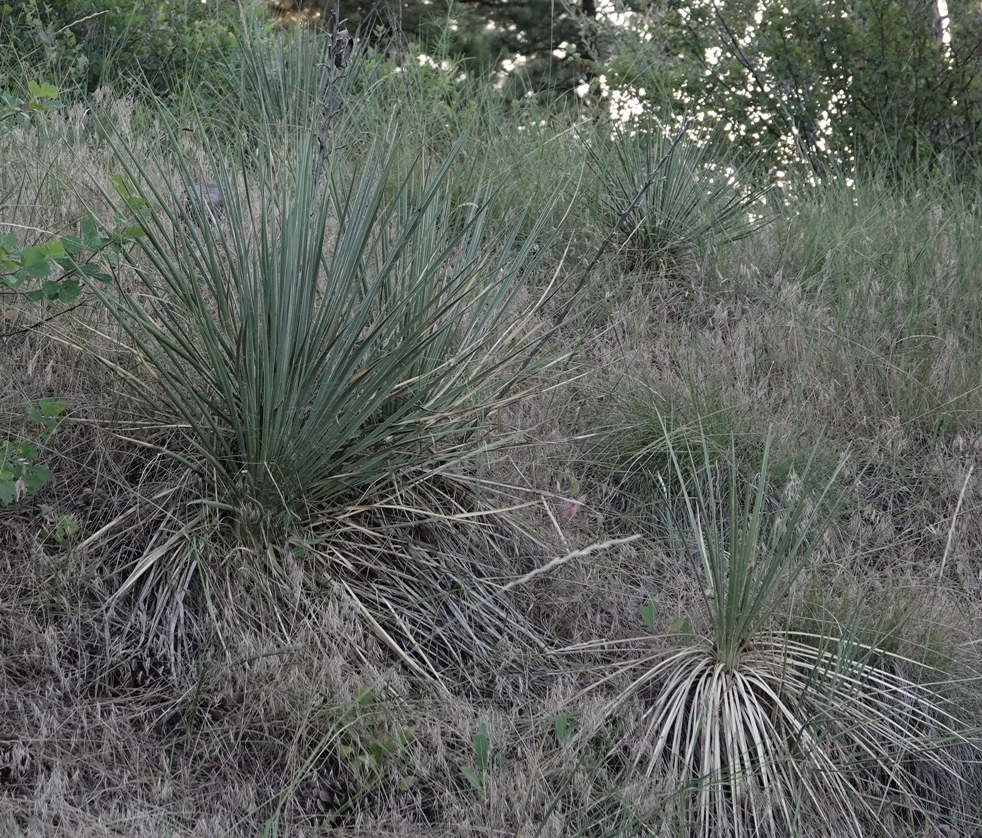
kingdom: Plantae
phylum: Tracheophyta
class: Liliopsida
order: Asparagales
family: Asparagaceae
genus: Yucca
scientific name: Yucca glauca
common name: Great plains yucca
